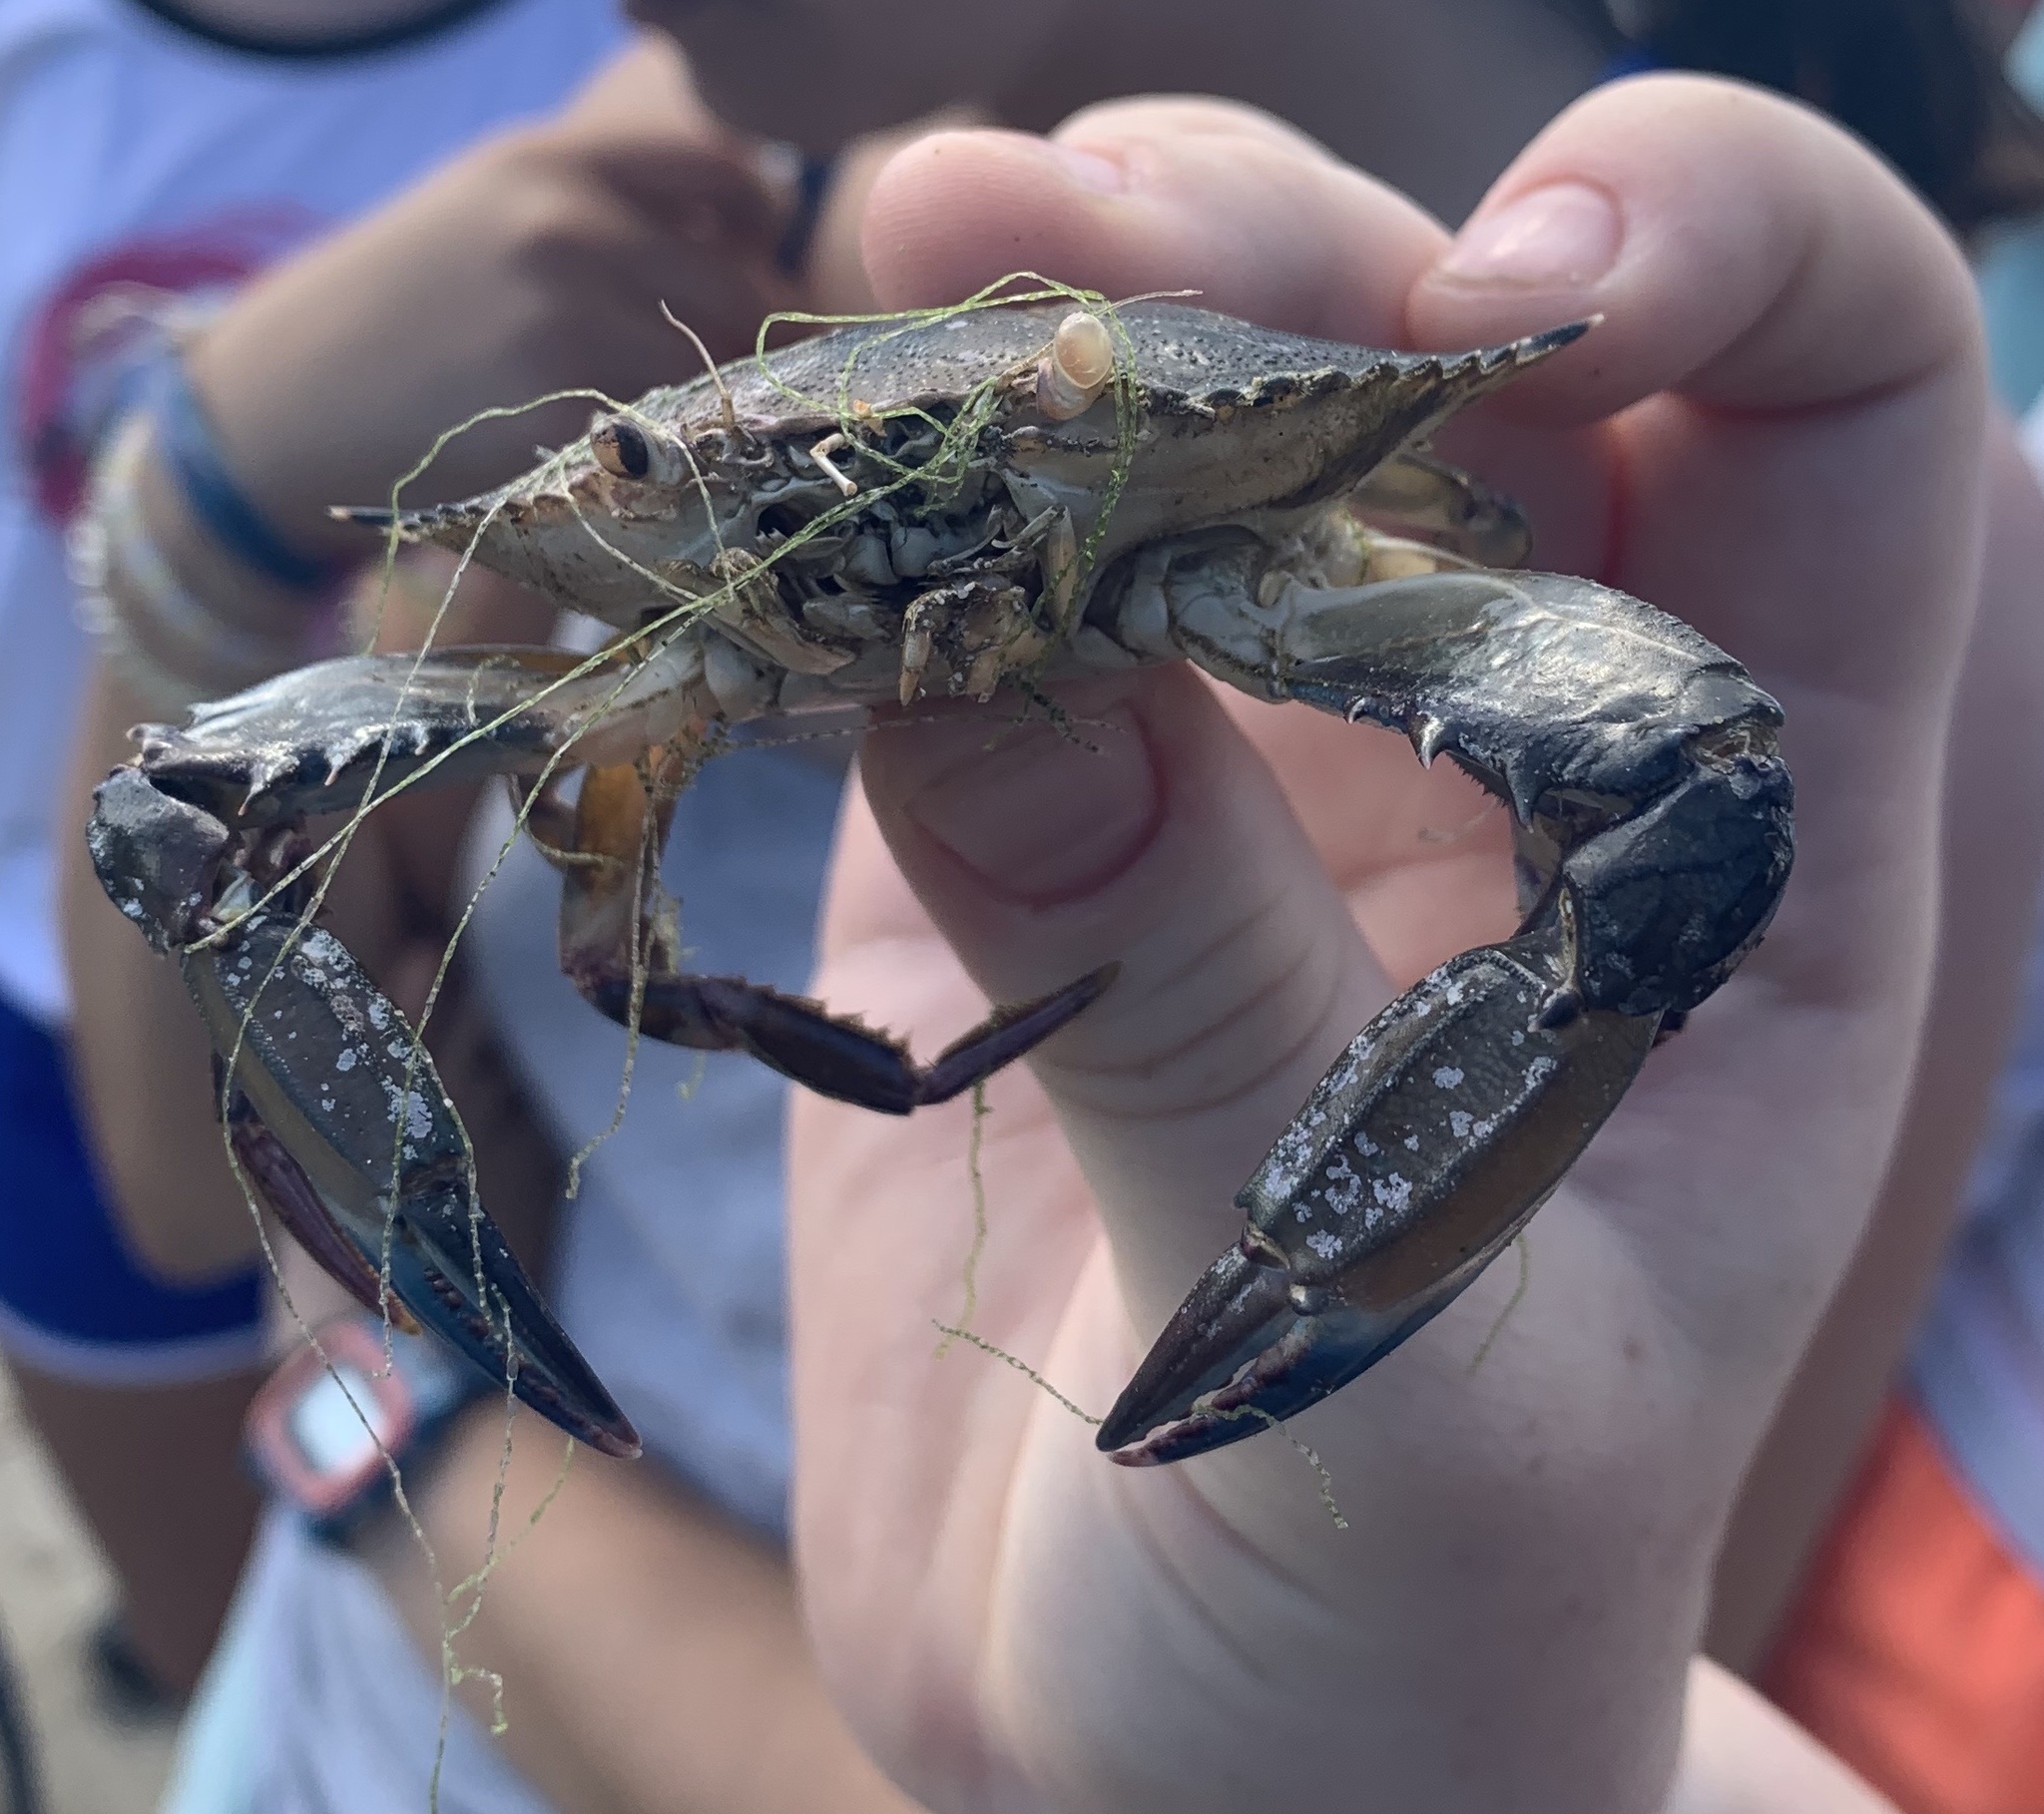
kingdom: Animalia
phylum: Arthropoda
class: Malacostraca
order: Decapoda
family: Portunidae
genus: Callinectes
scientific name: Callinectes sapidus
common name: Blue crab
